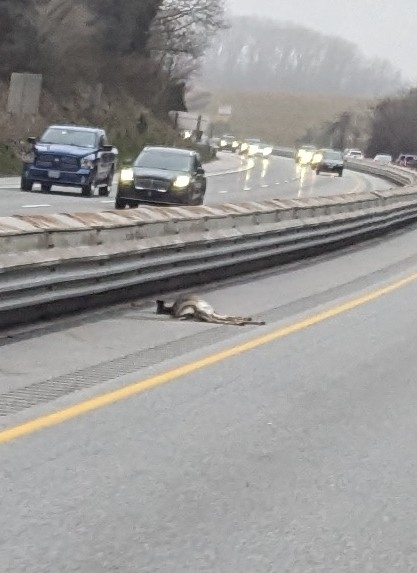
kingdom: Animalia
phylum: Chordata
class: Mammalia
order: Artiodactyla
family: Cervidae
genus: Odocoileus
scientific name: Odocoileus virginianus
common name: White-tailed deer
